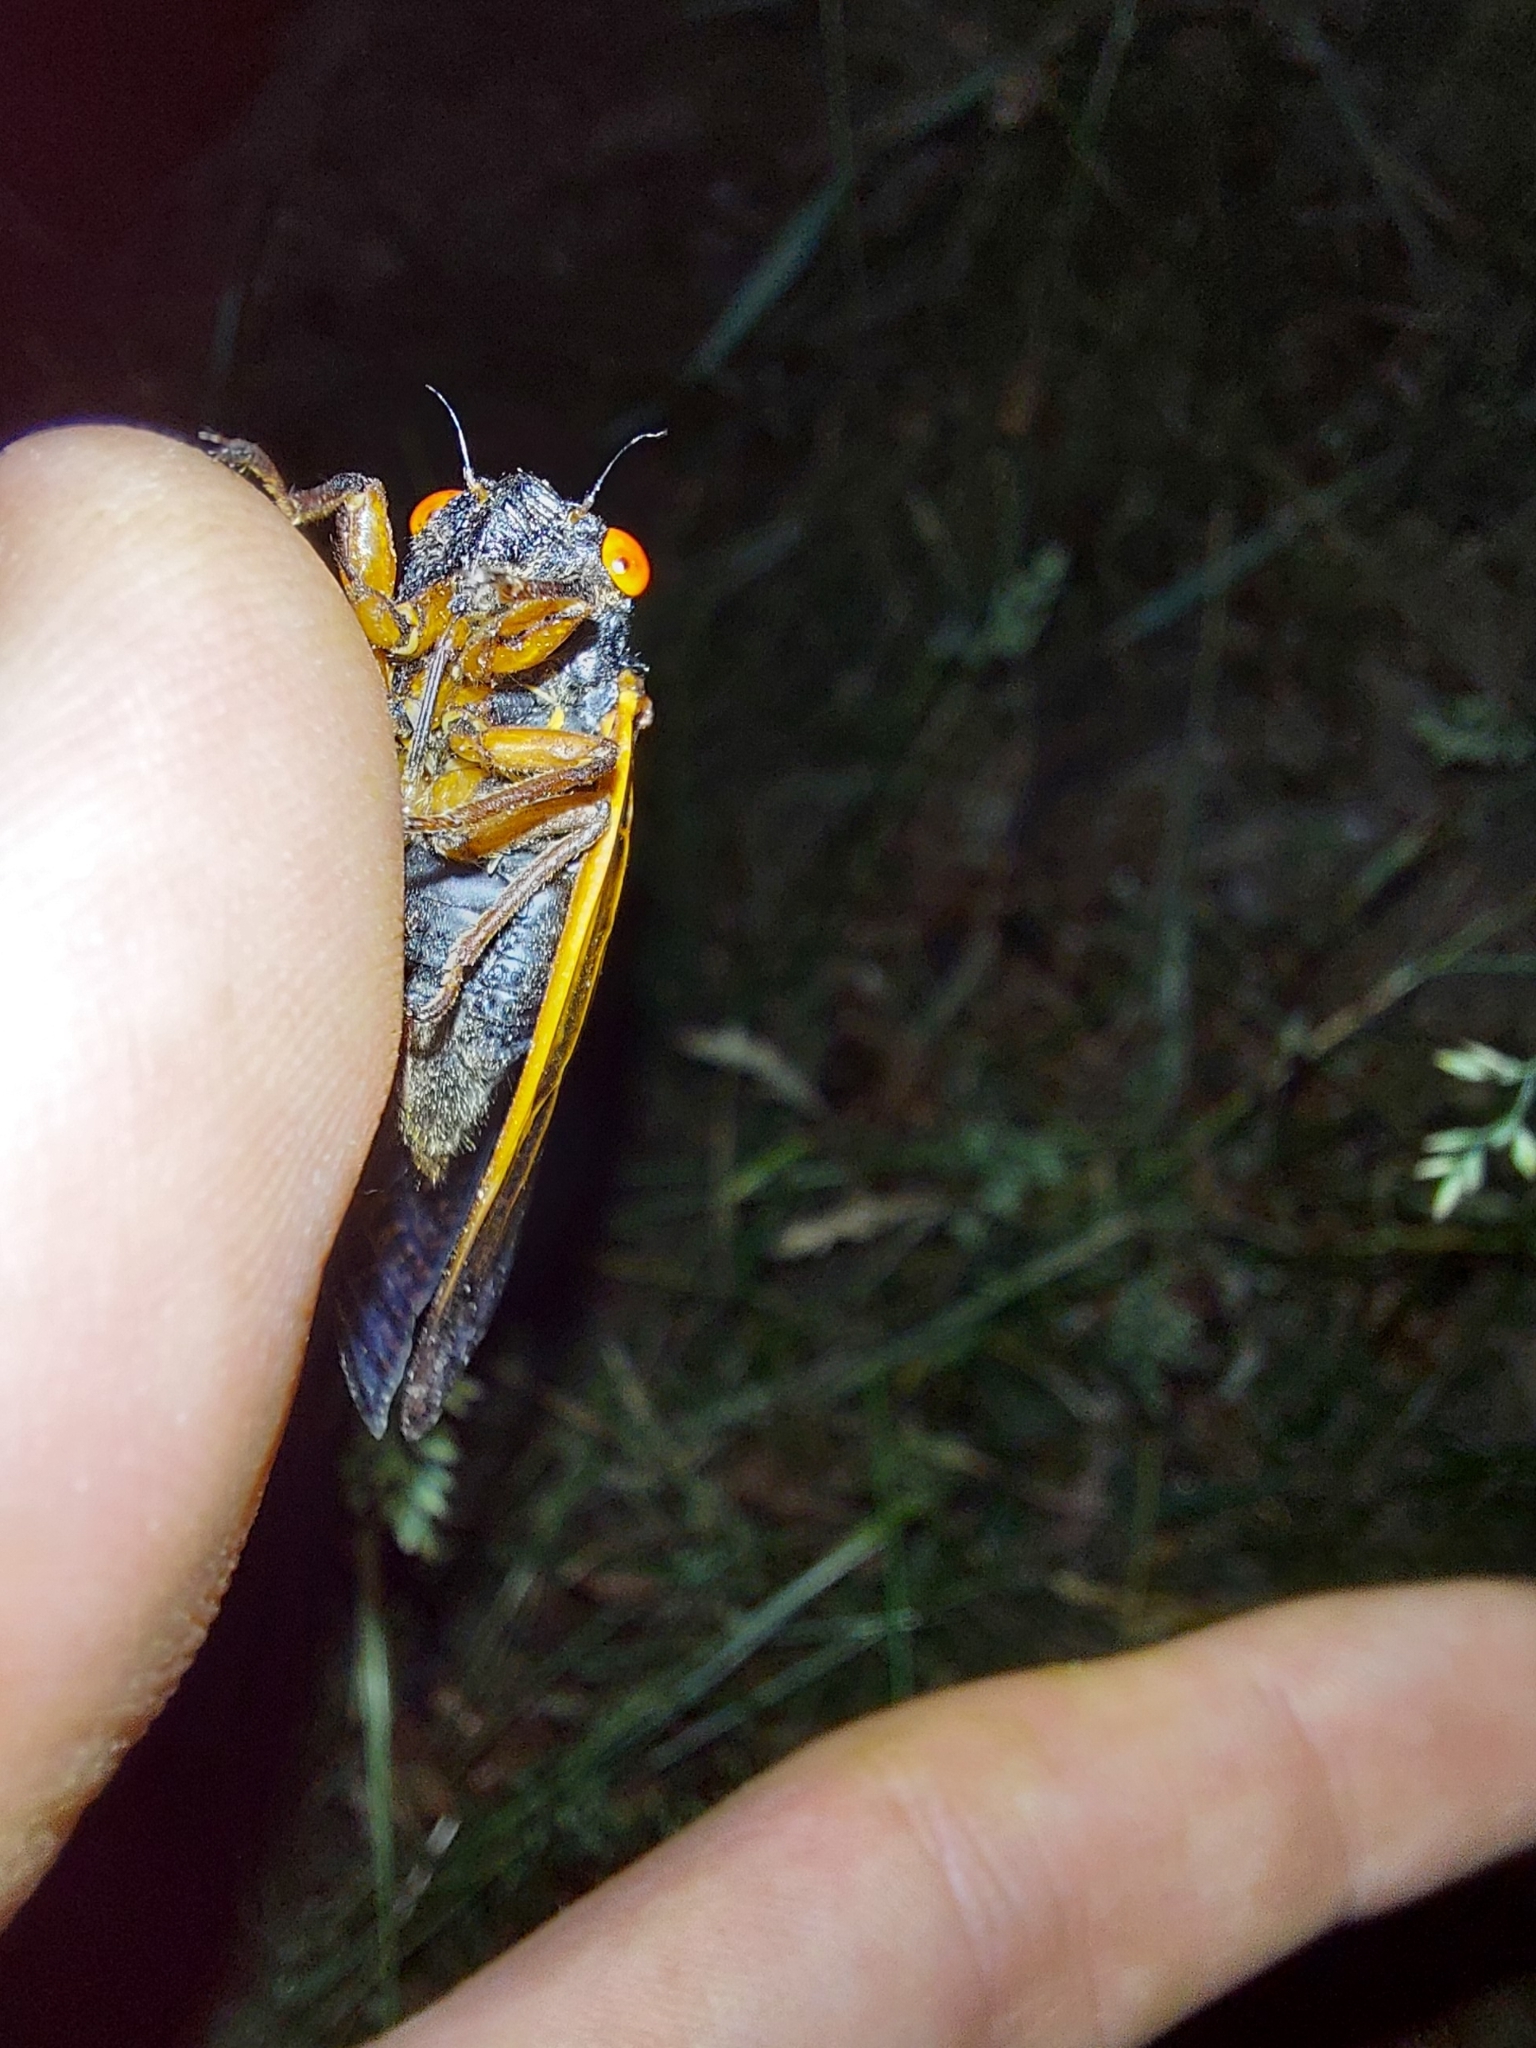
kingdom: Animalia
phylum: Arthropoda
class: Insecta
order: Hemiptera
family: Cicadidae
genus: Magicicada
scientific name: Magicicada cassini
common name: Cassin's 17-year cicada
